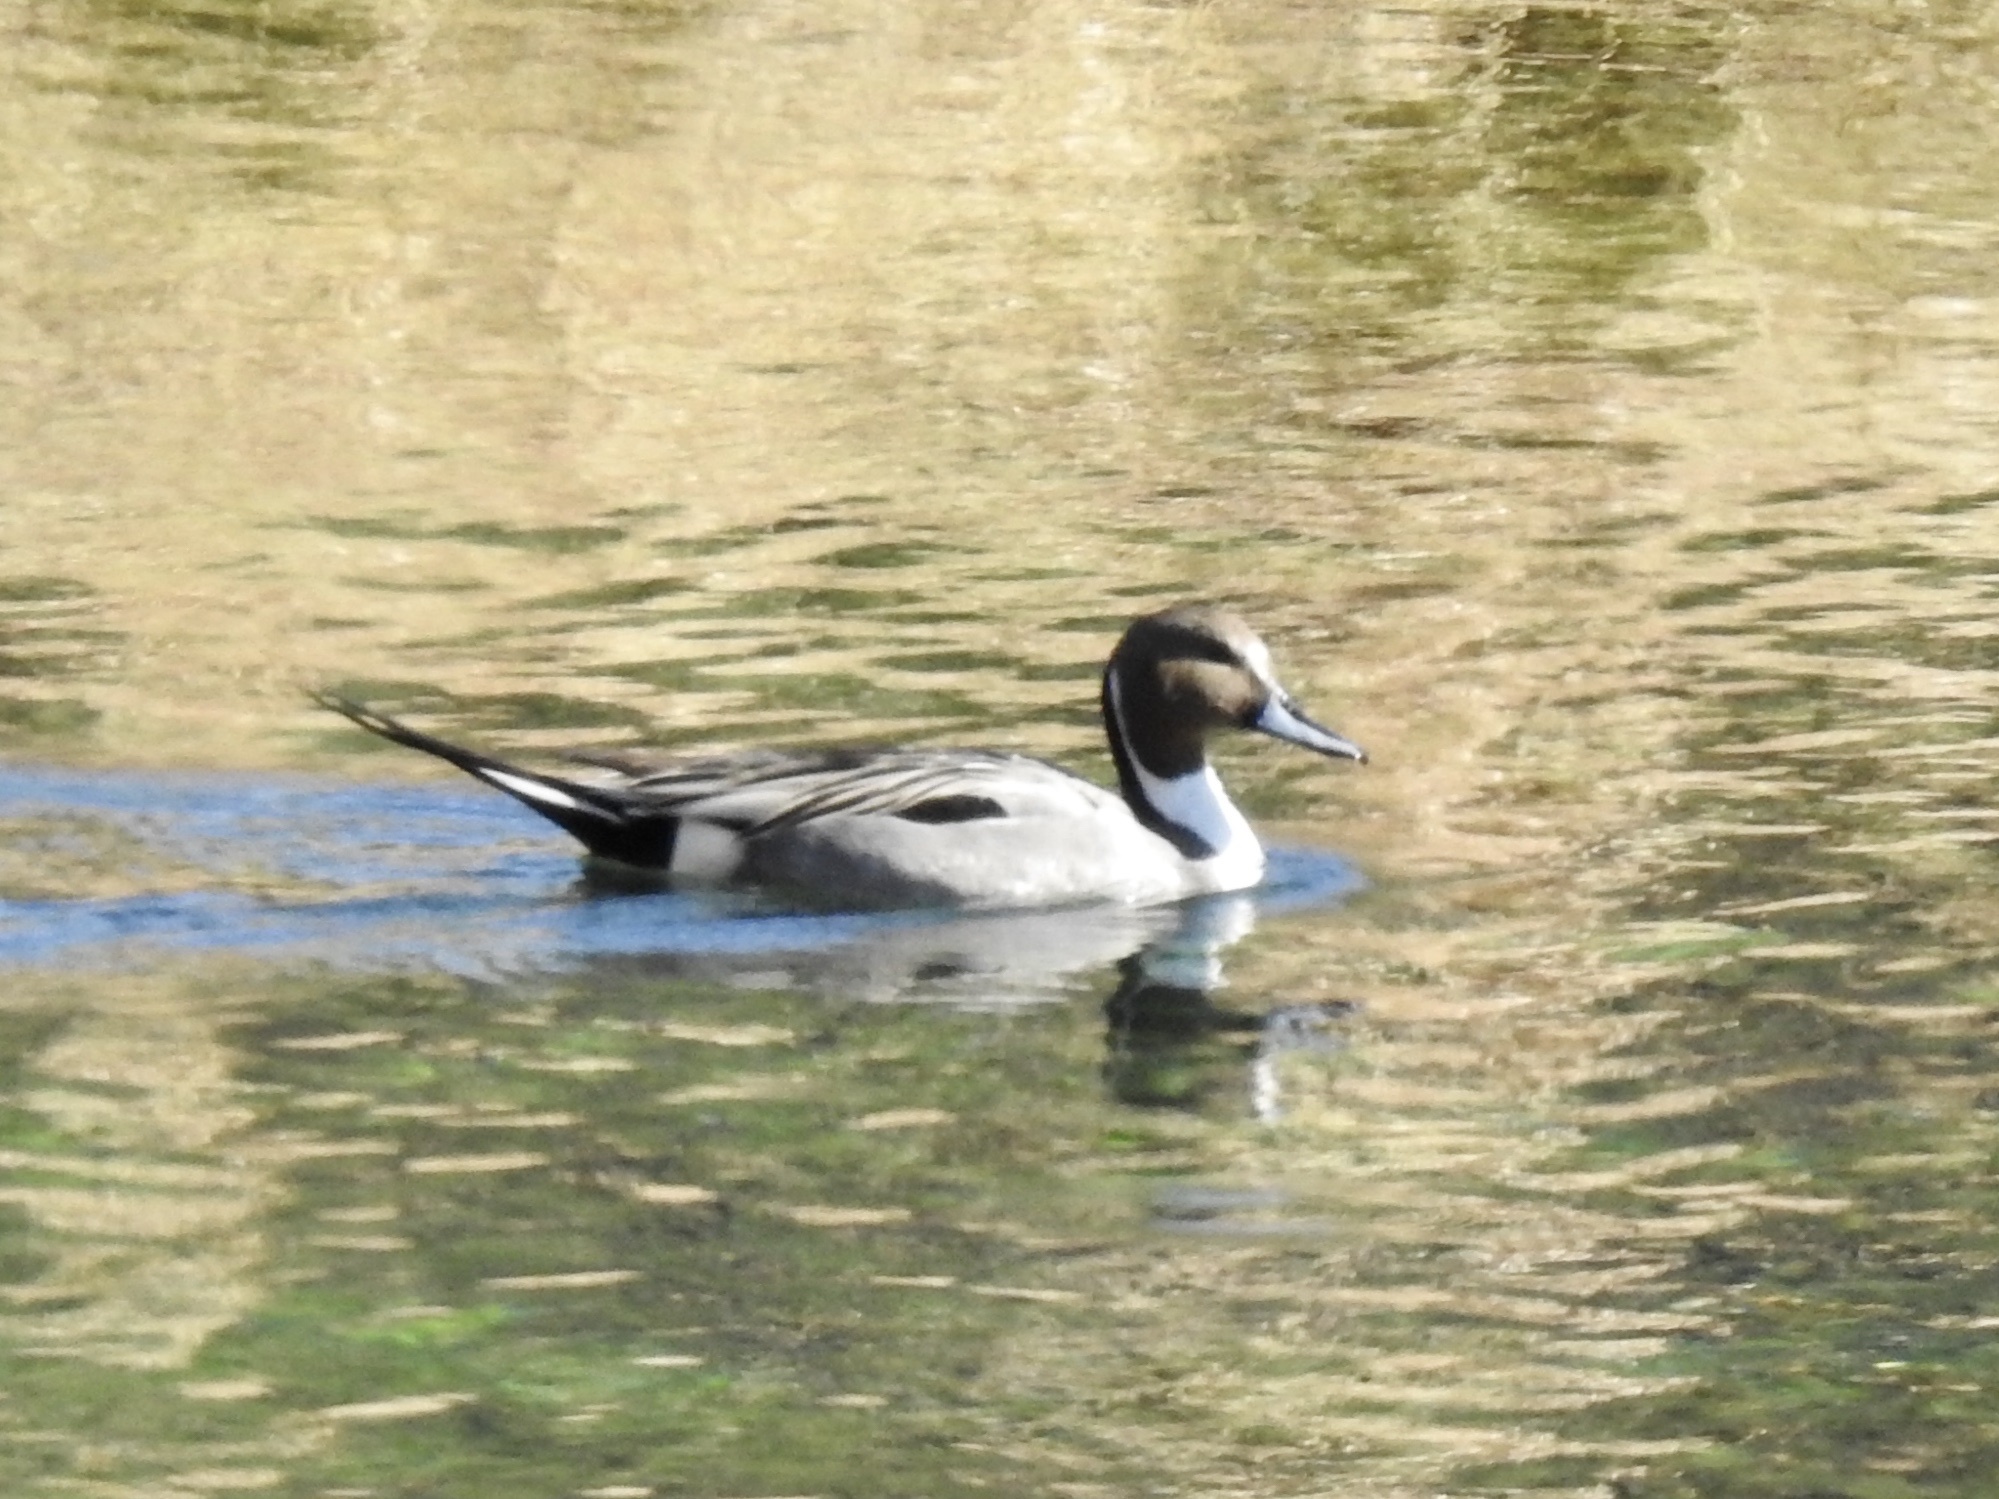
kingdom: Animalia
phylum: Chordata
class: Aves
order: Anseriformes
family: Anatidae
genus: Anas
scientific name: Anas acuta
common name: Northern pintail
